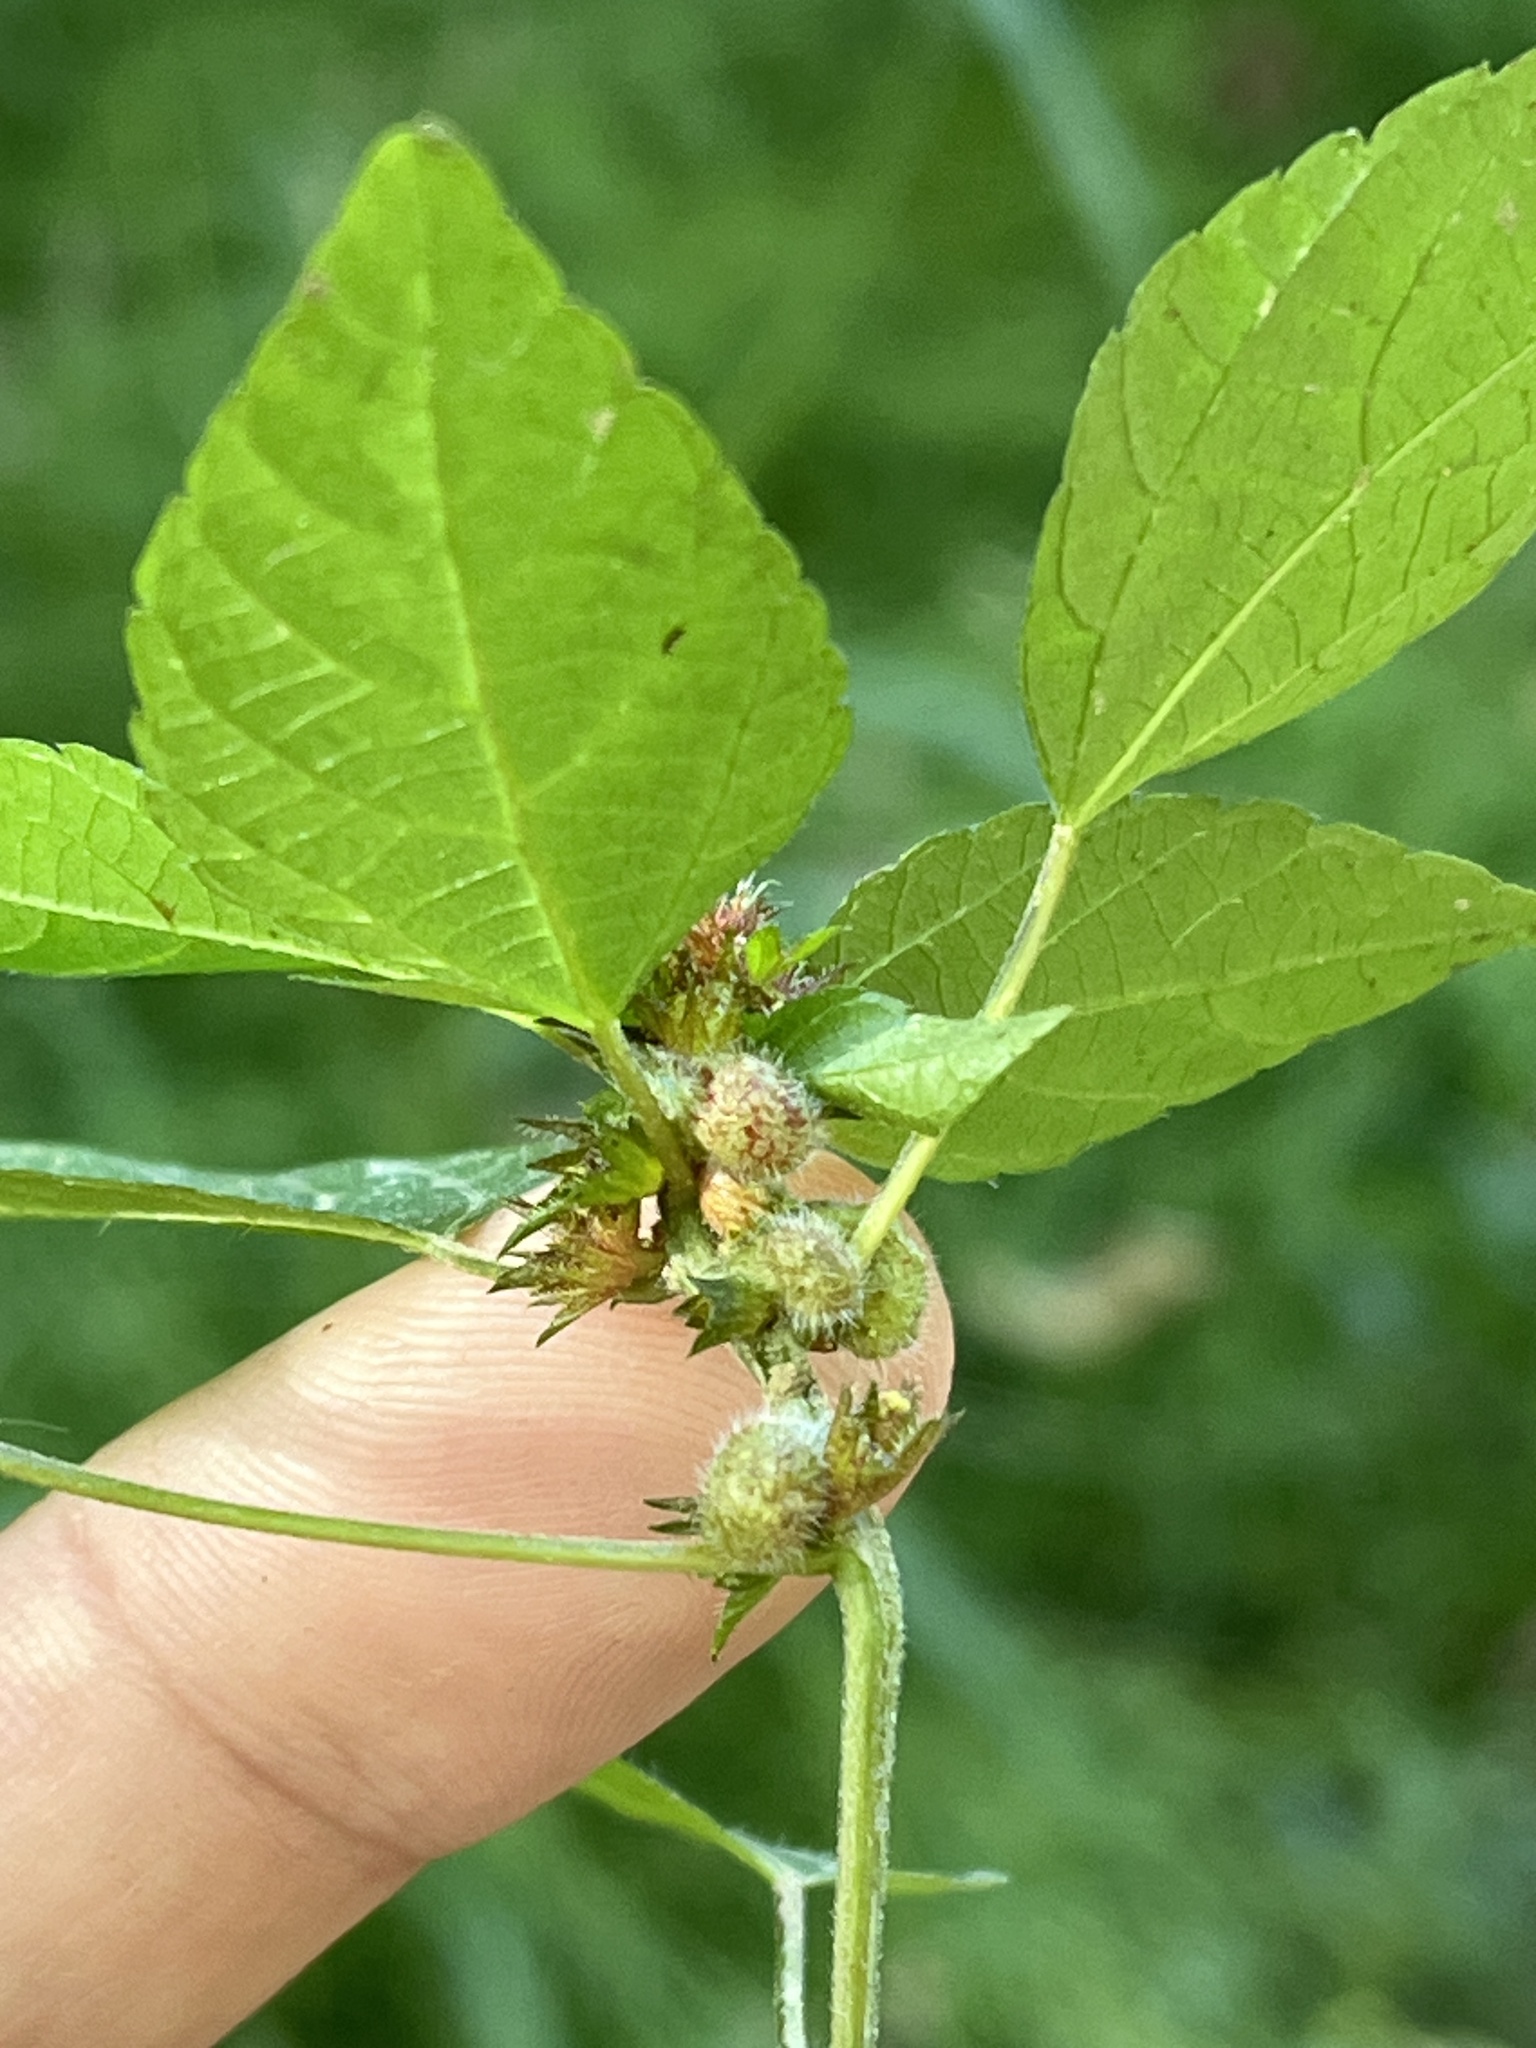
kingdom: Animalia
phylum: Arthropoda
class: Insecta
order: Diptera
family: Cecidomyiidae
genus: Resseliella
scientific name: Resseliella globosa
